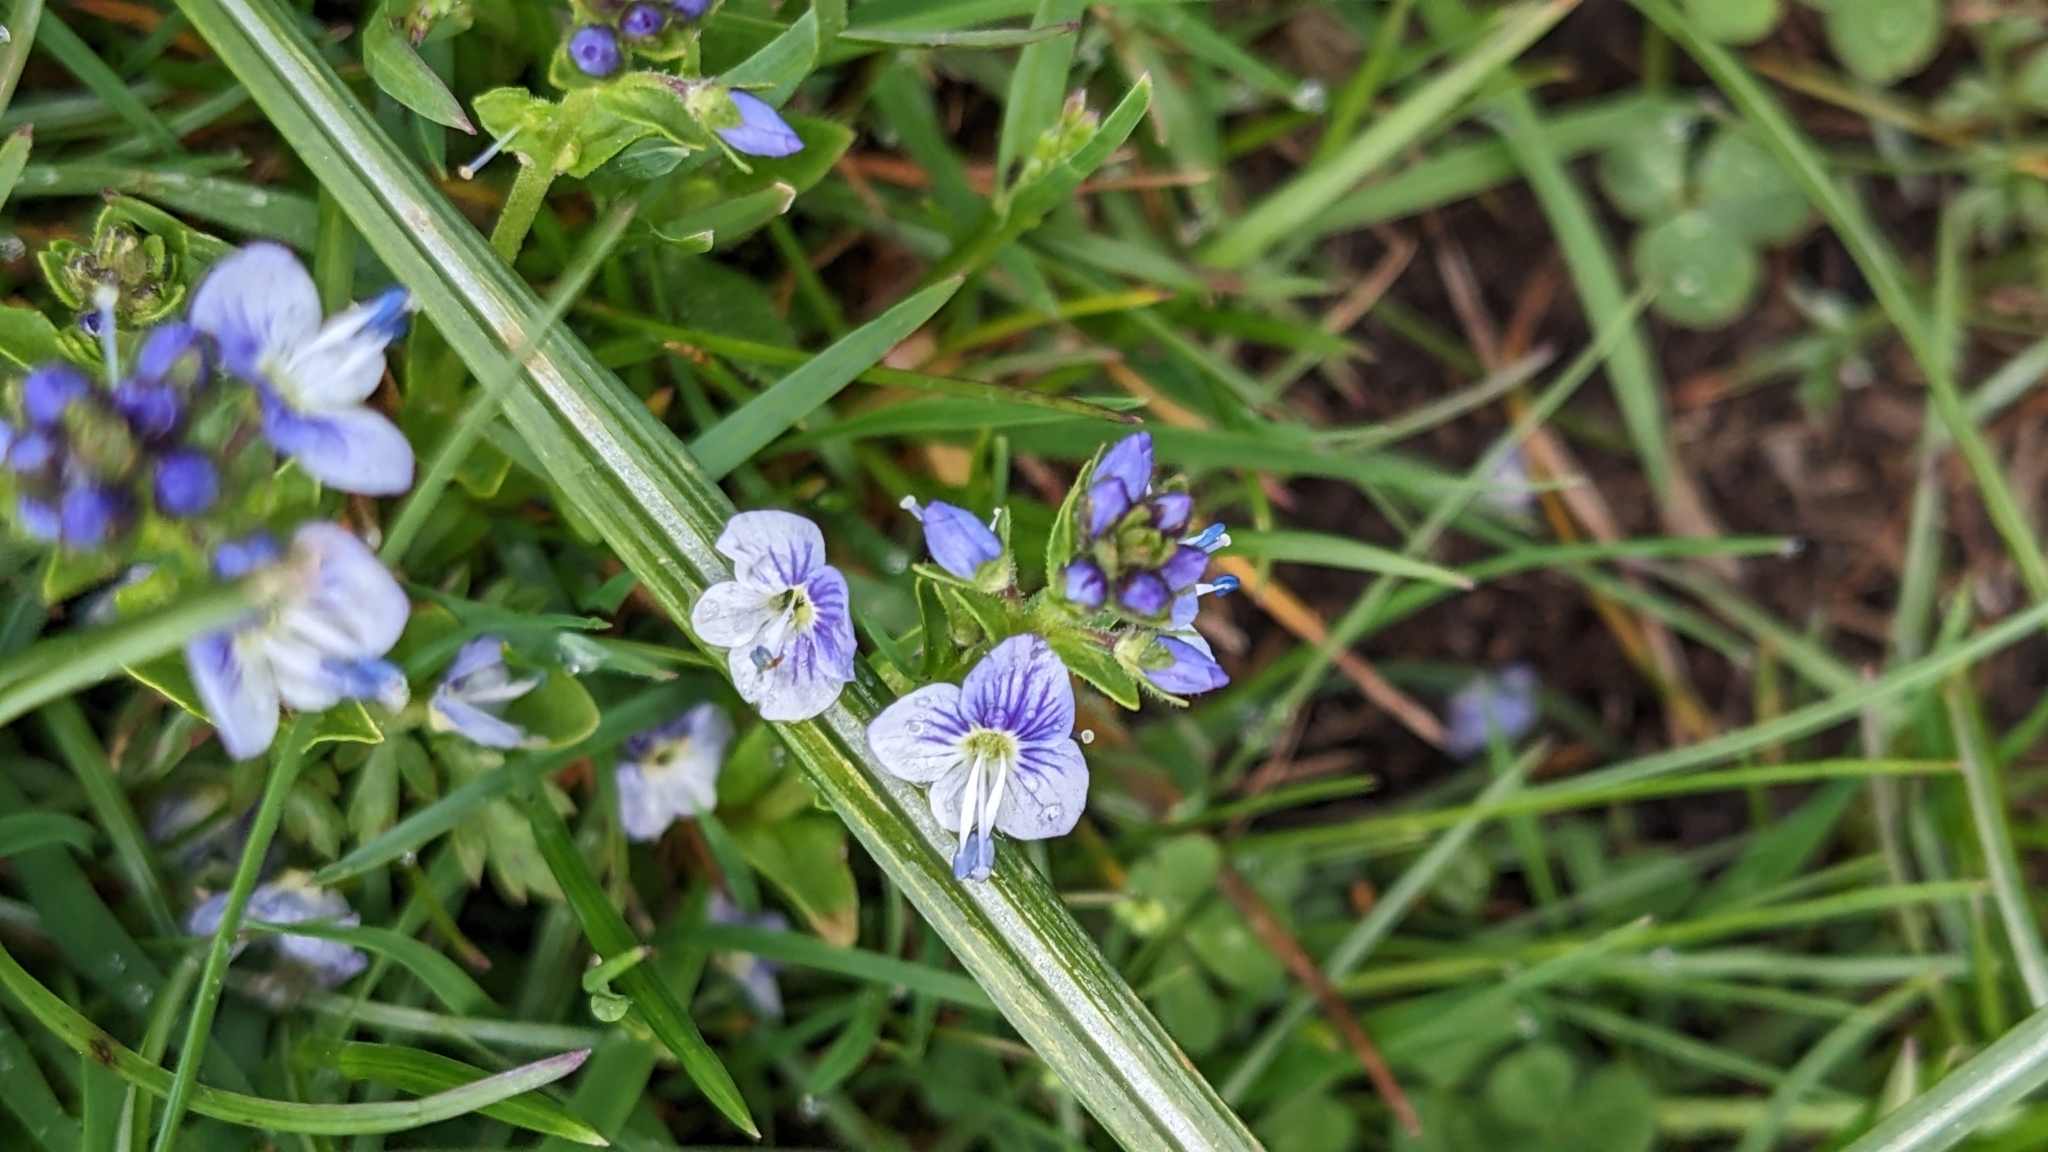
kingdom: Plantae
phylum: Tracheophyta
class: Magnoliopsida
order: Lamiales
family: Plantaginaceae
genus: Veronica
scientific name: Veronica serpyllifolia
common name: Thyme-leaved speedwell
